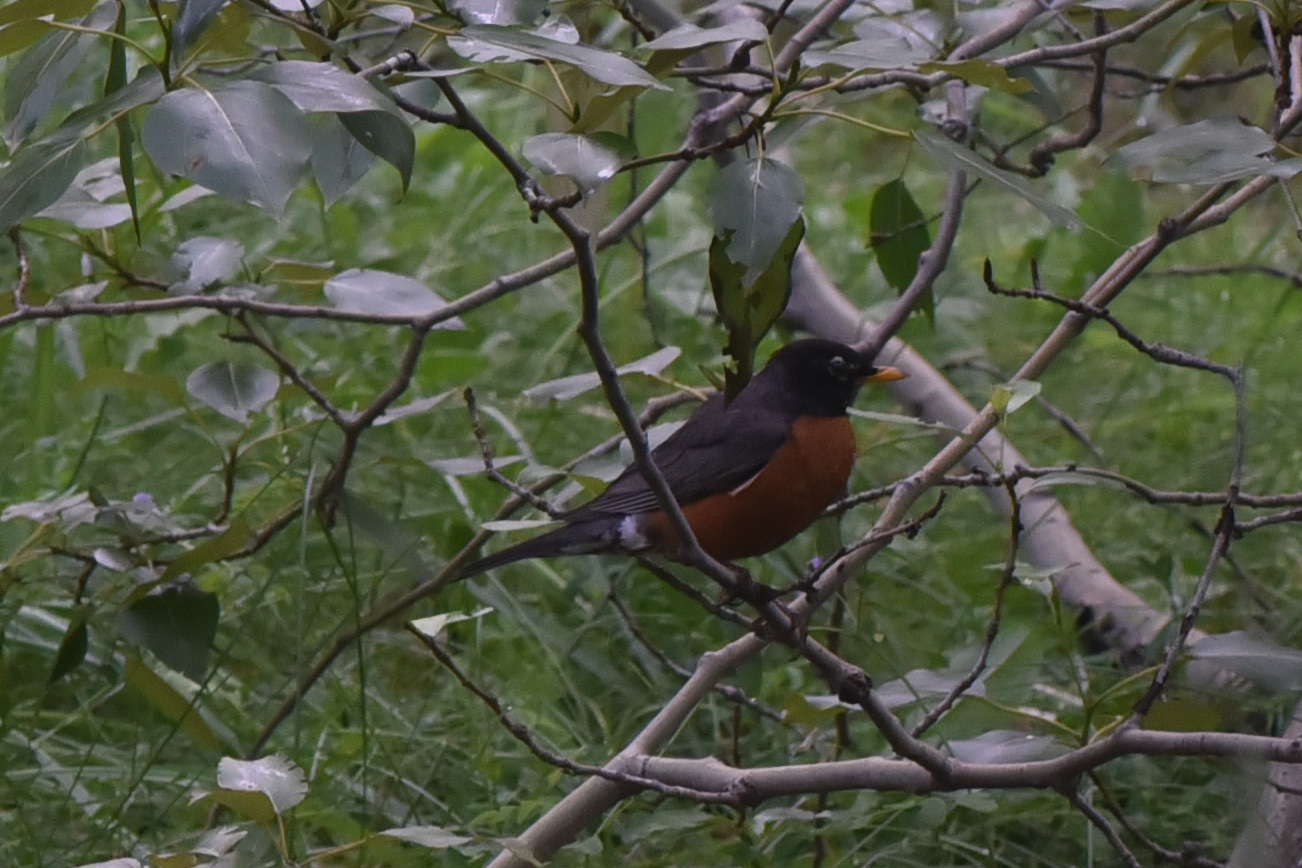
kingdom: Animalia
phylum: Chordata
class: Aves
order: Passeriformes
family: Turdidae
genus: Turdus
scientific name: Turdus migratorius
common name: American robin
